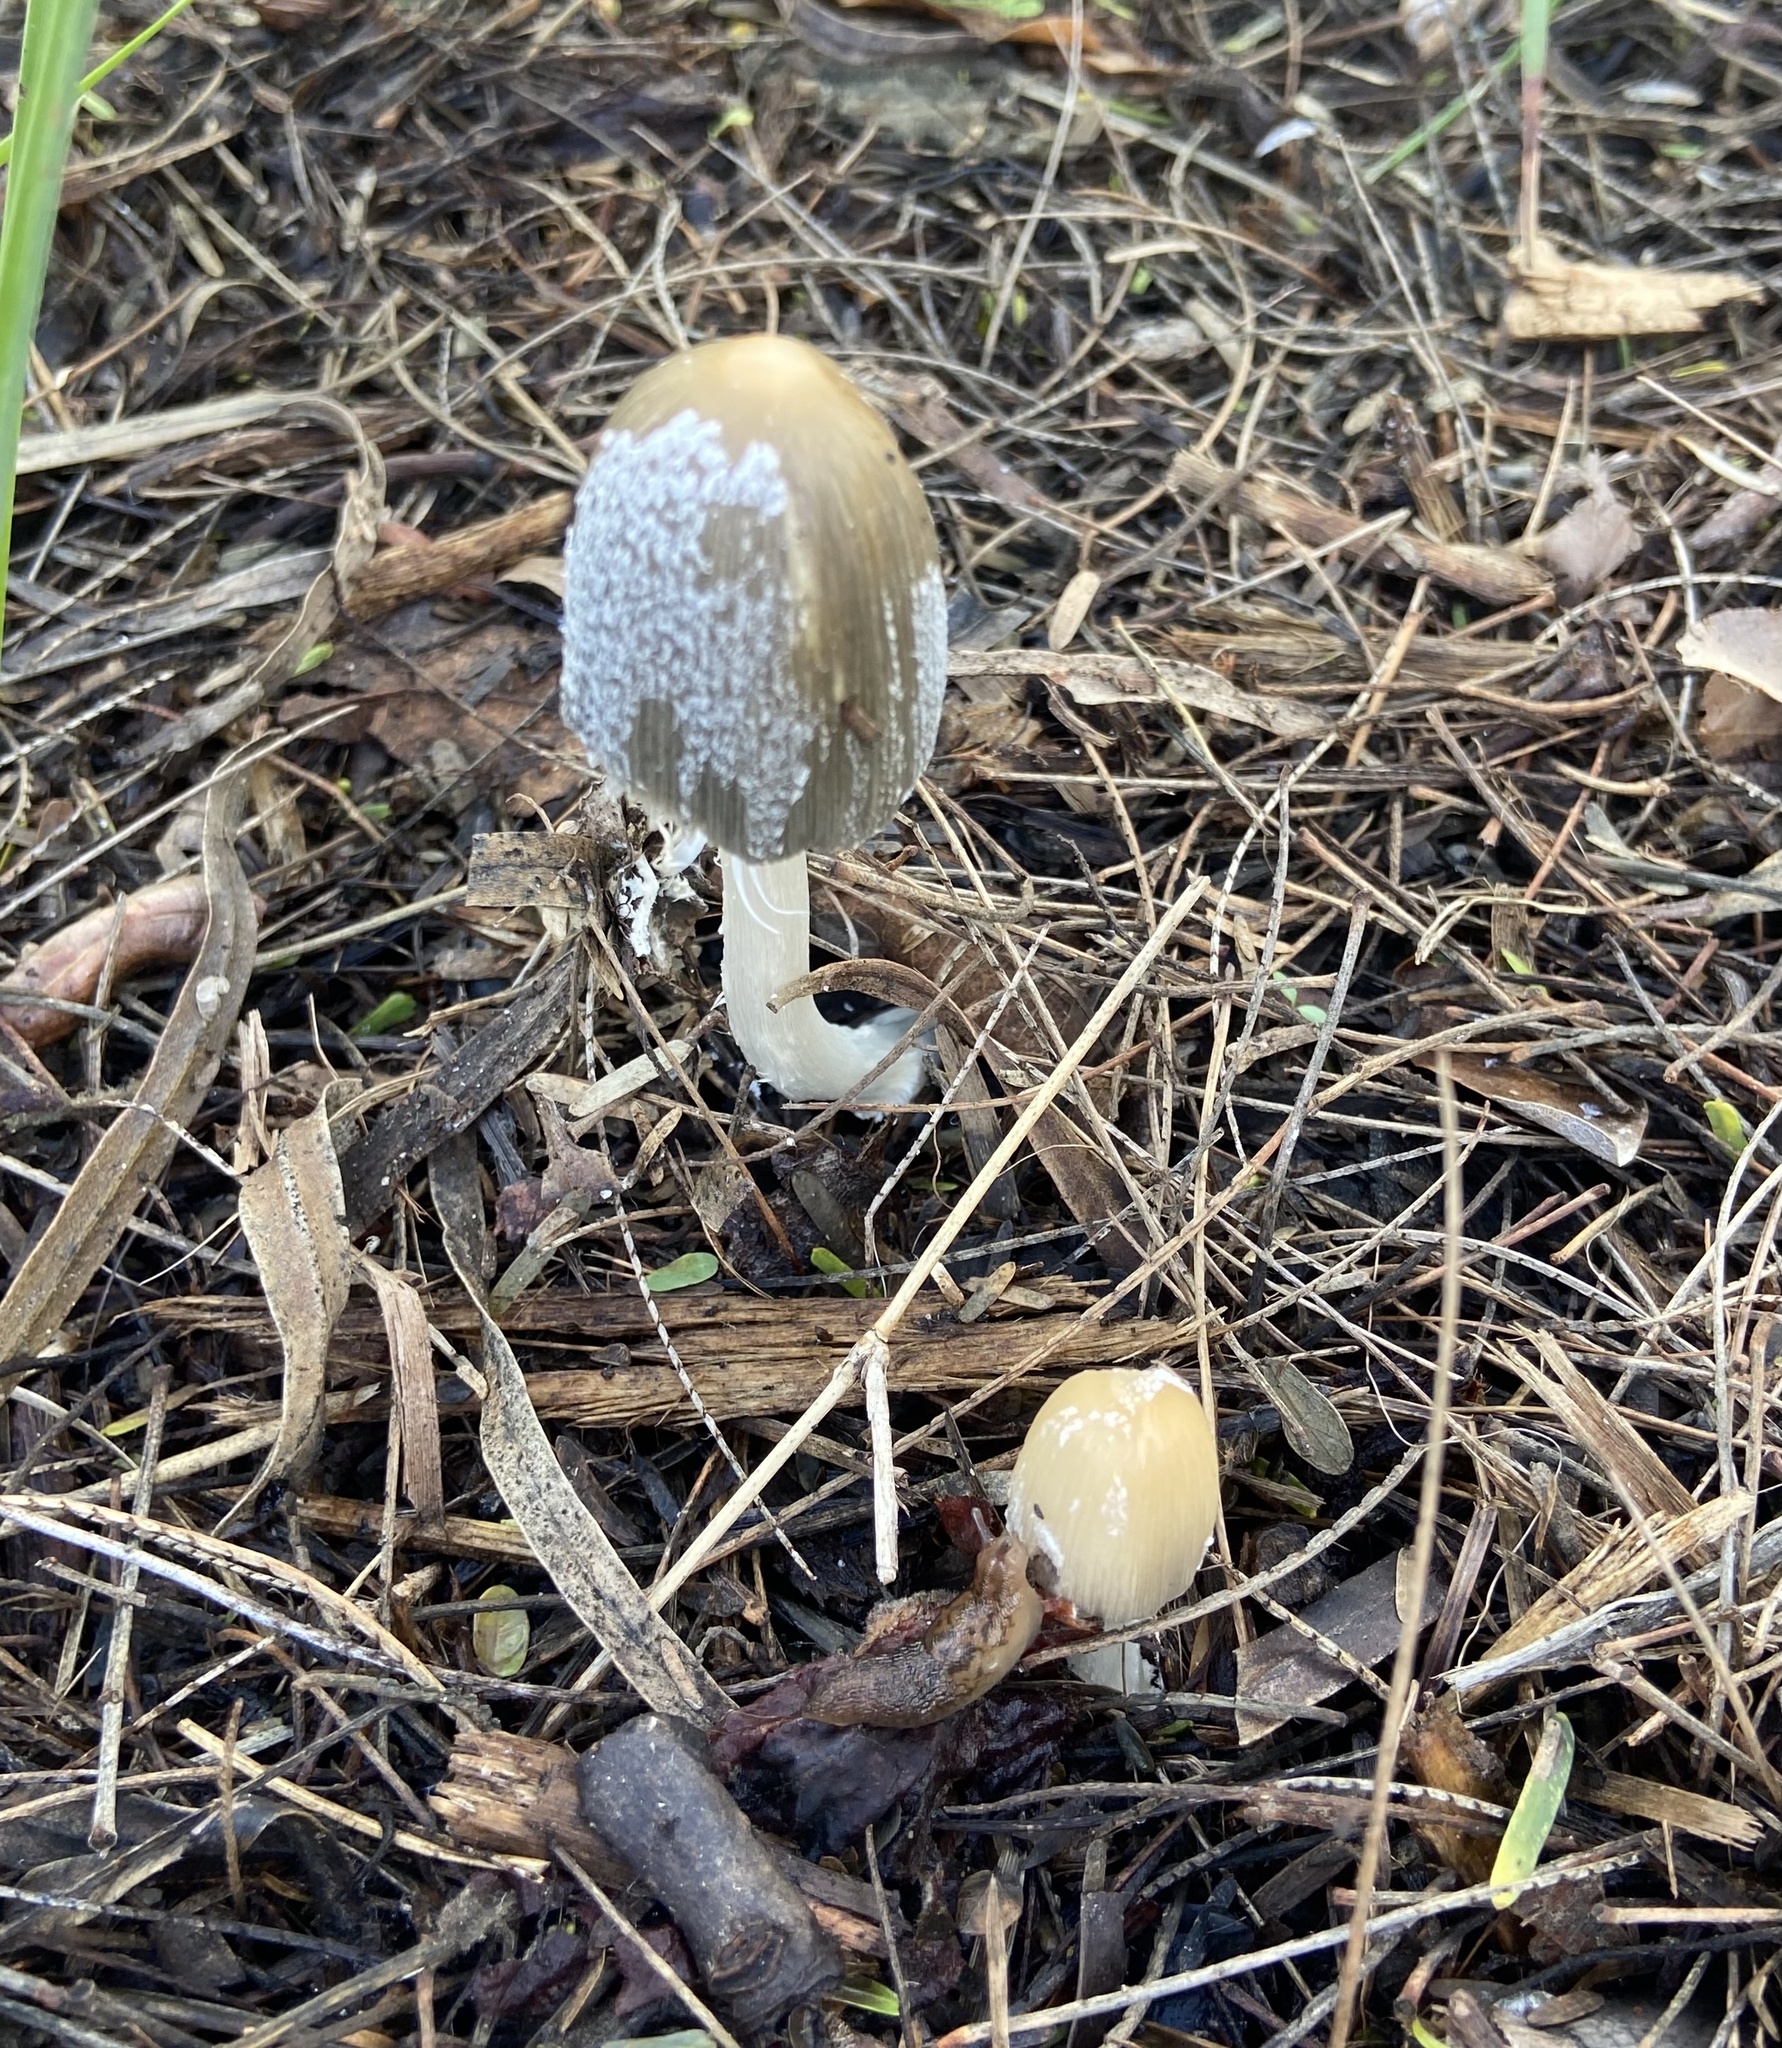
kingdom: Fungi
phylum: Basidiomycota
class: Agaricomycetes
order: Agaricales
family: Psathyrellaceae
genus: Coprinellus
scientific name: Coprinellus flocculosus
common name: Flocculose inkcap
